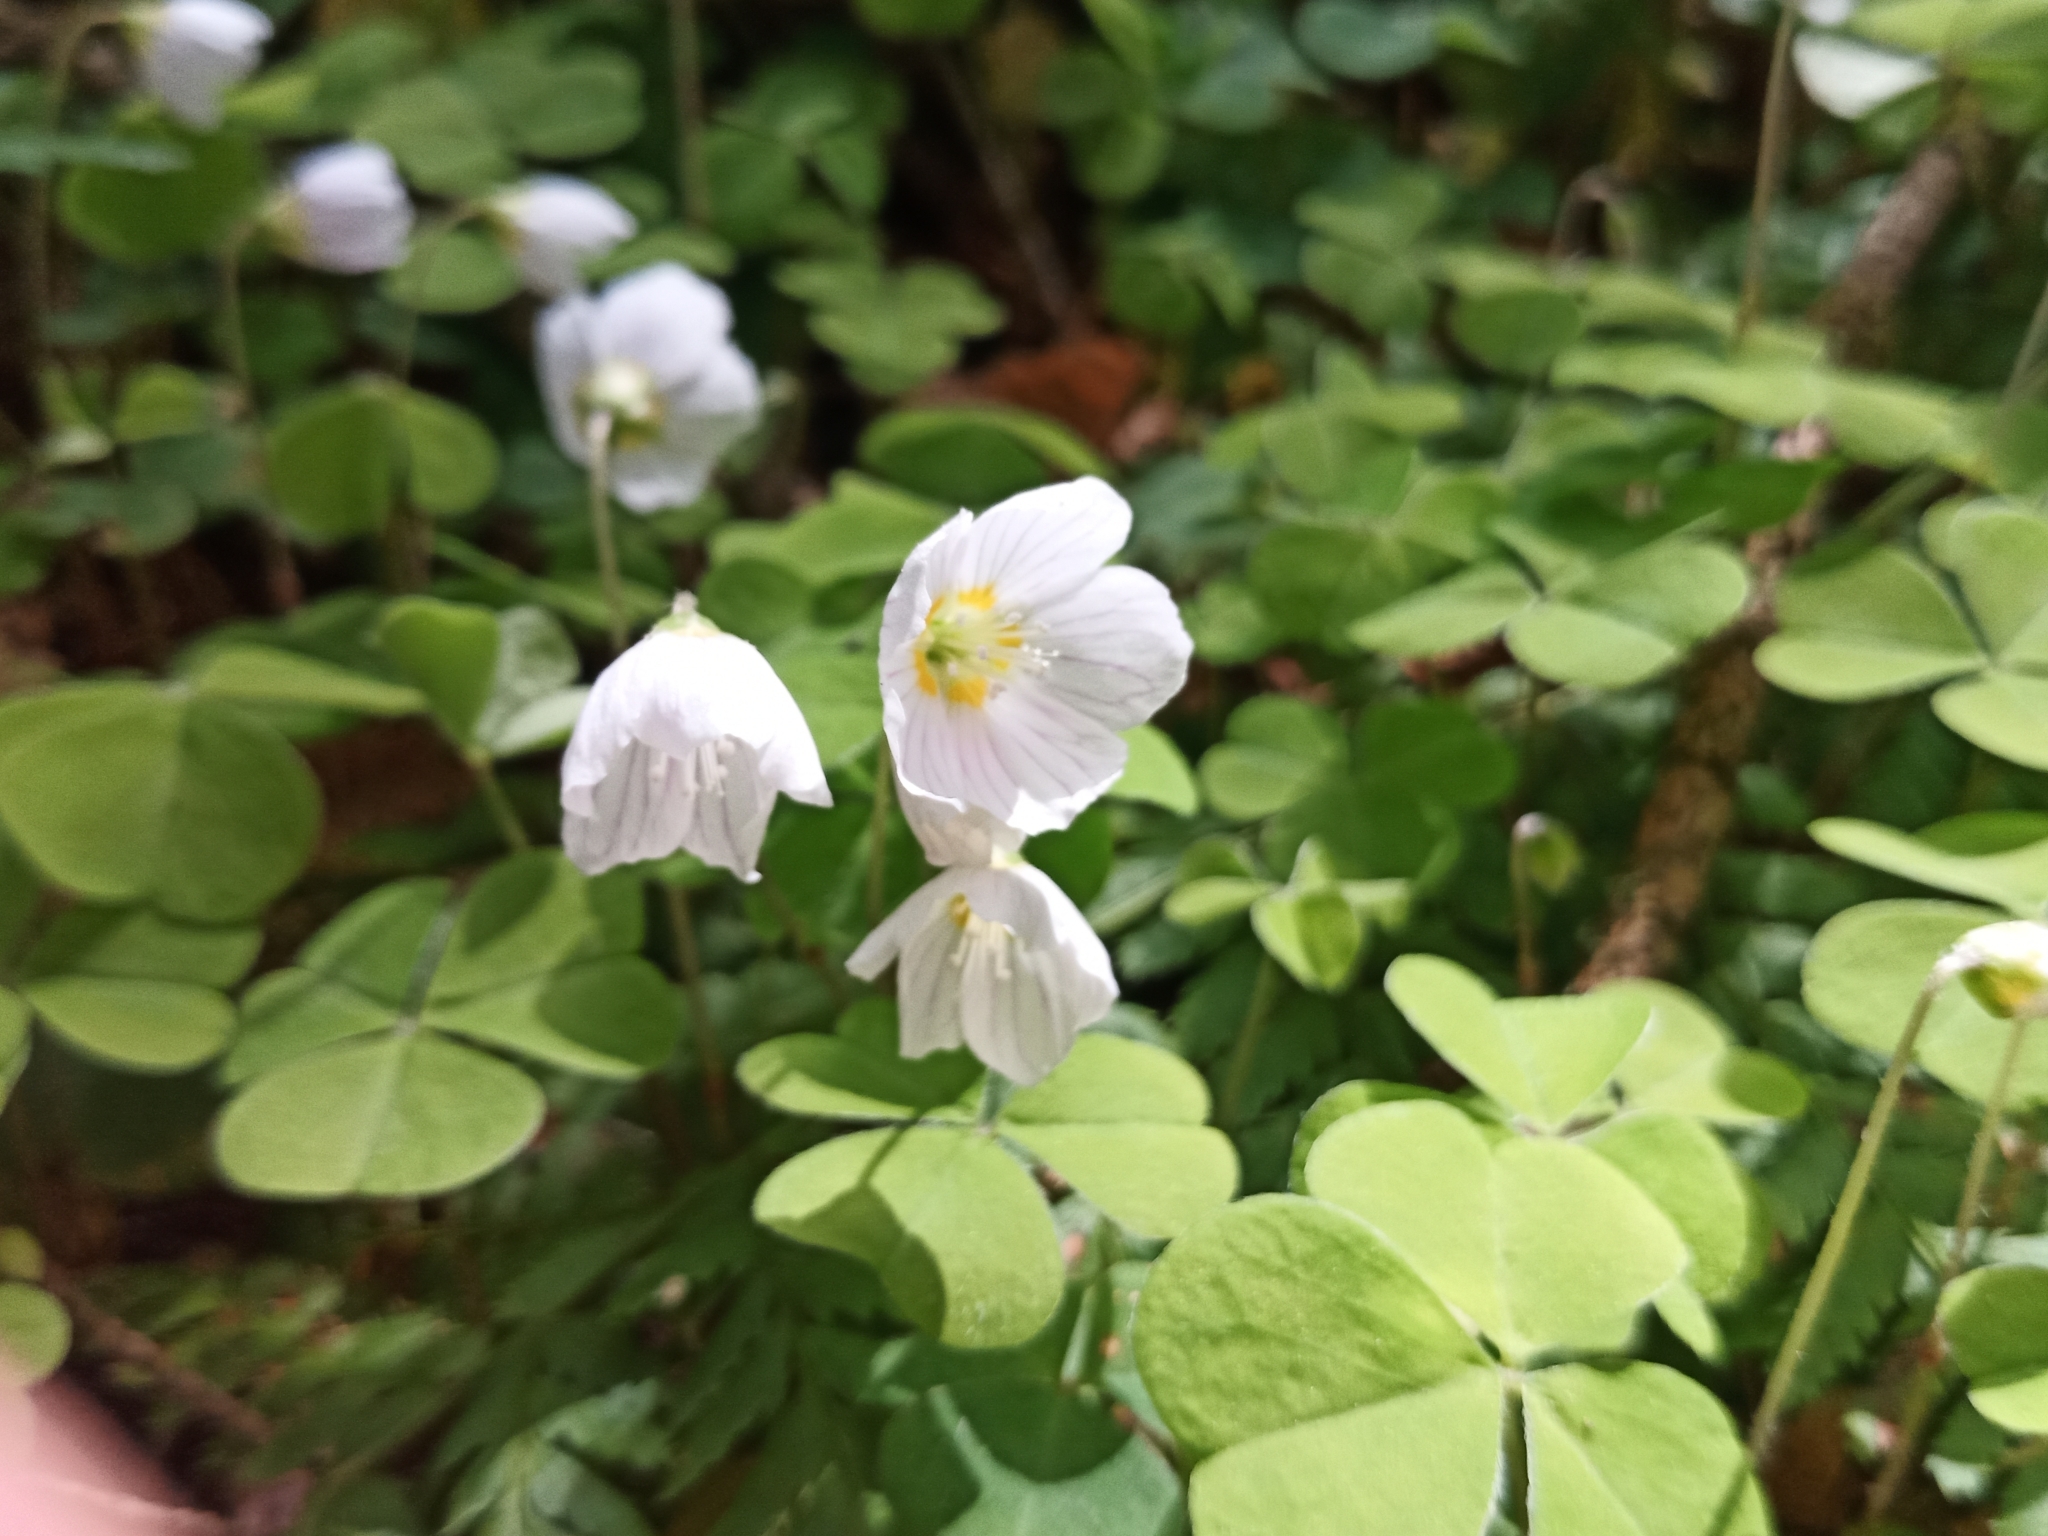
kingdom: Plantae
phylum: Tracheophyta
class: Magnoliopsida
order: Oxalidales
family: Oxalidaceae
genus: Oxalis
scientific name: Oxalis acetosella
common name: Wood-sorrel
